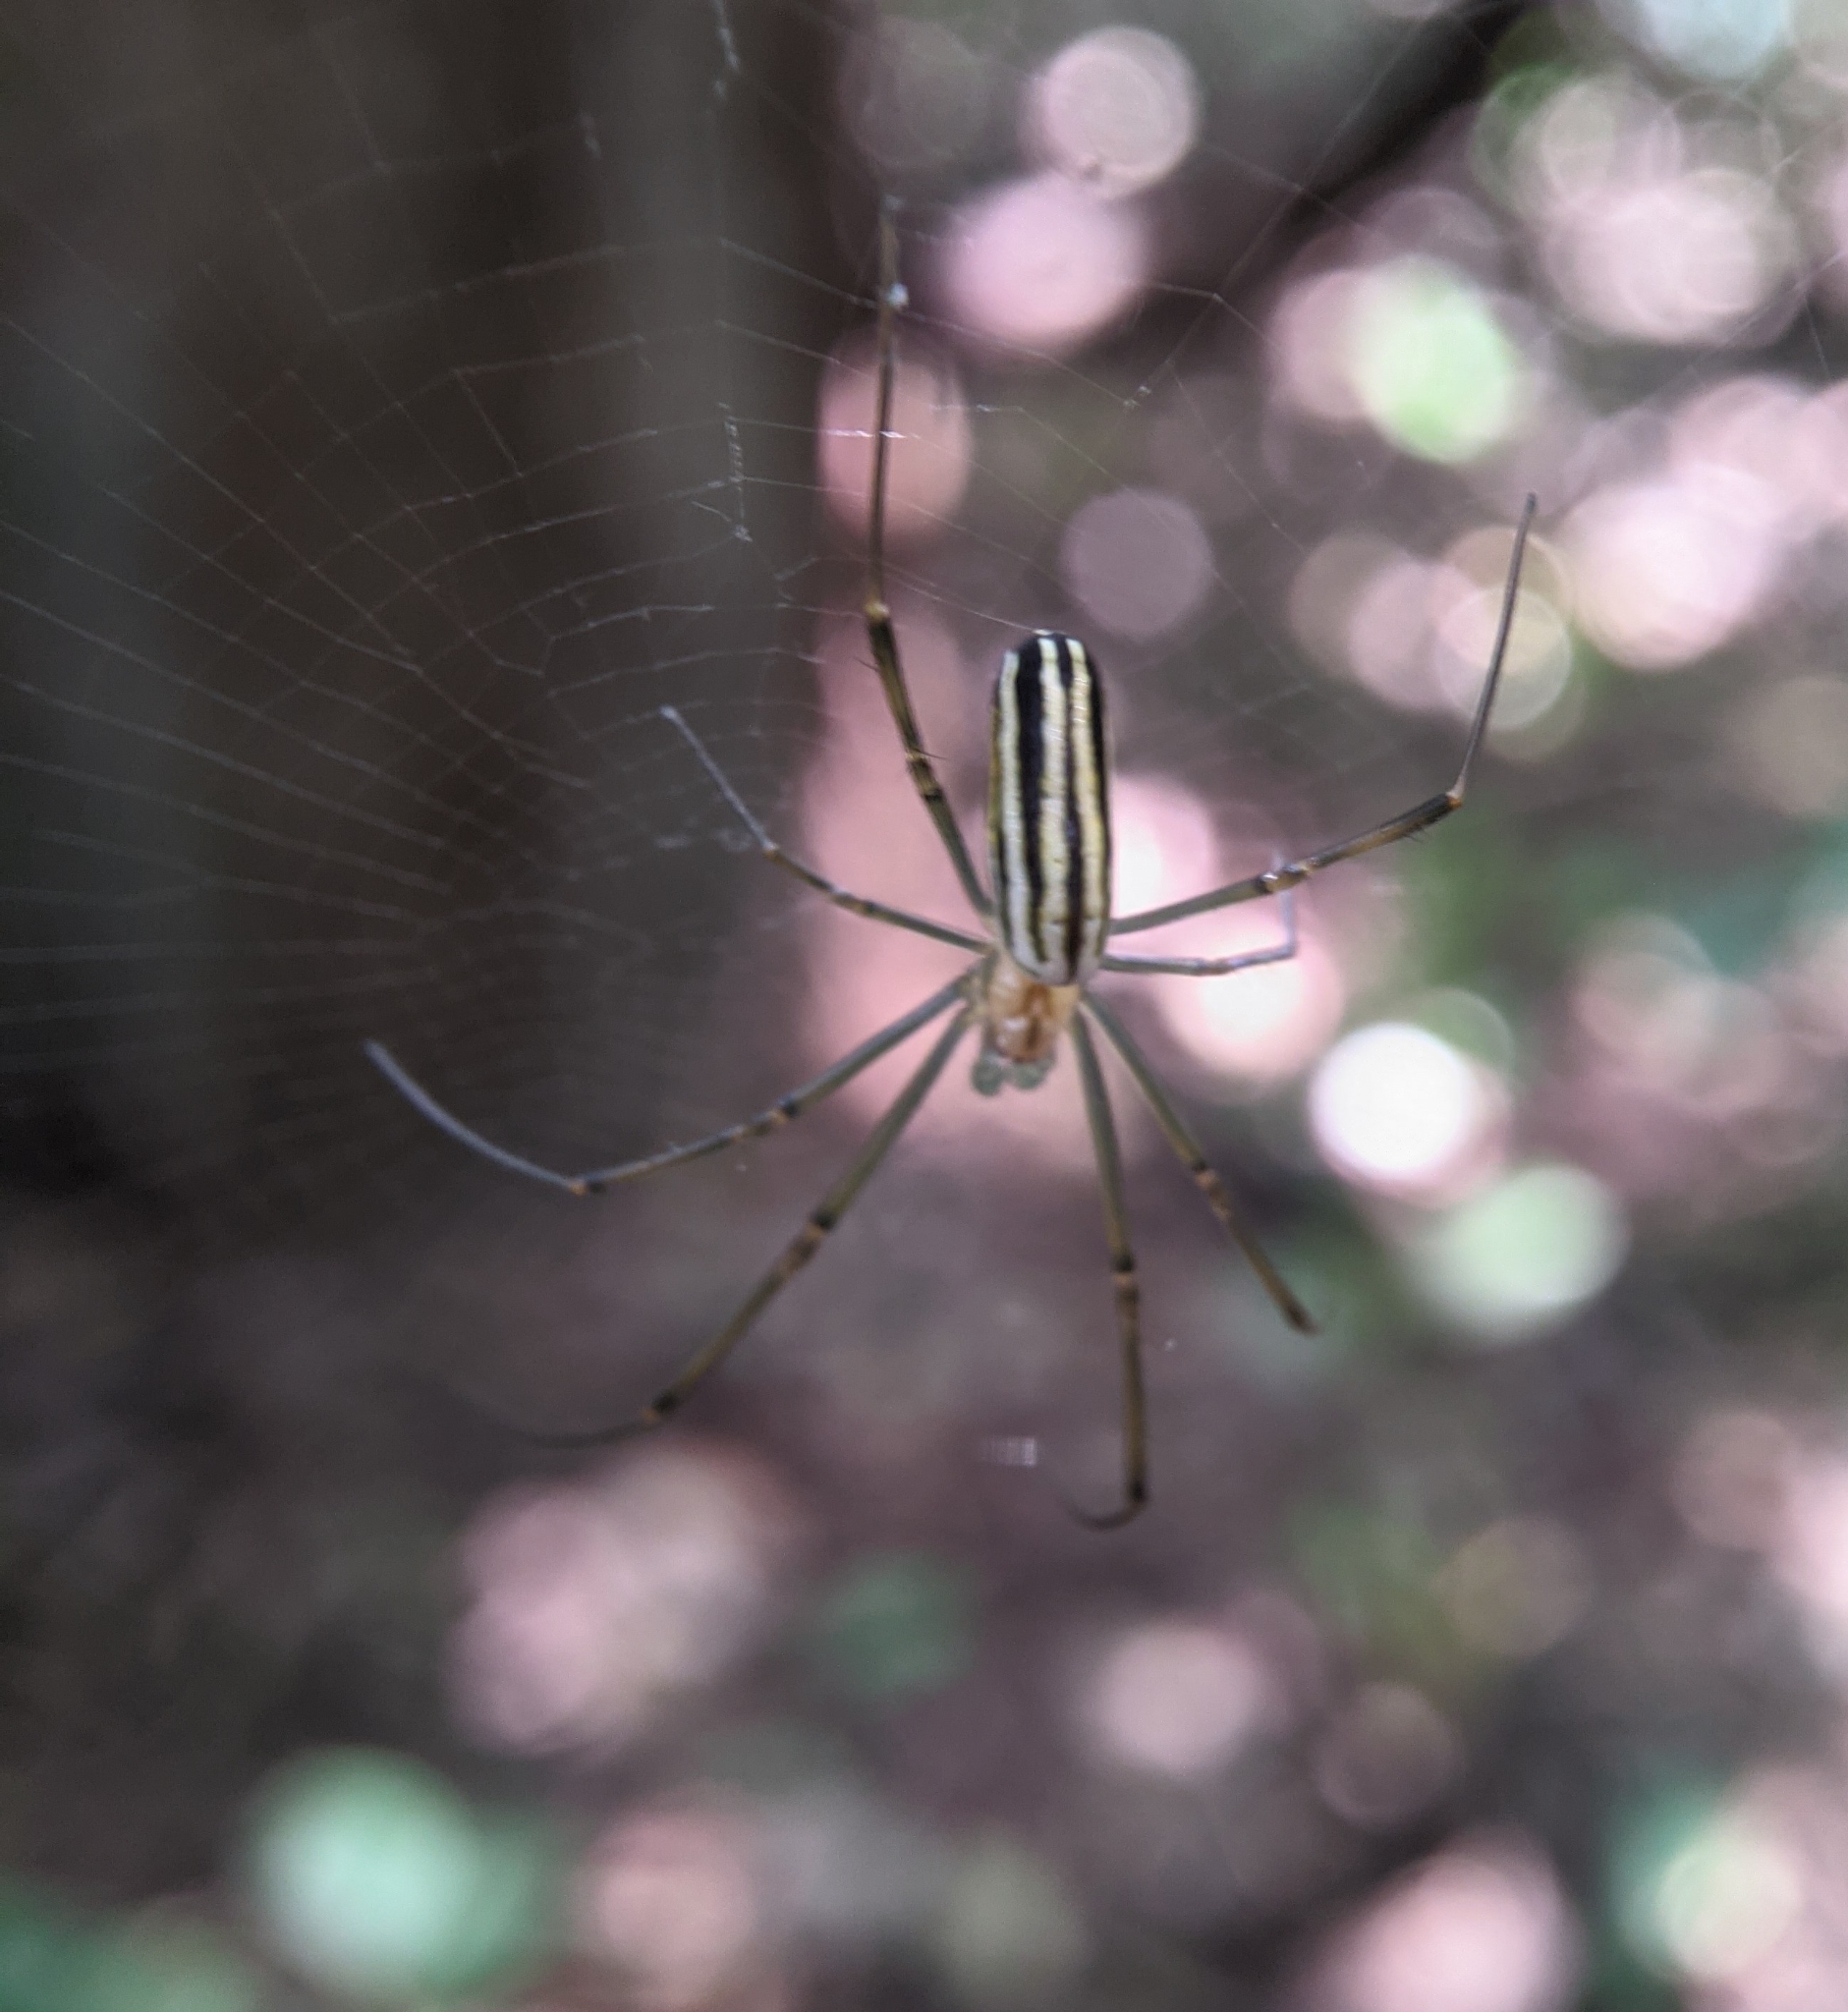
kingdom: Animalia
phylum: Arthropoda
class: Arachnida
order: Araneae
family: Araneidae
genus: Nephila
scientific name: Nephila pilipes
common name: Giant golden orb weaver
